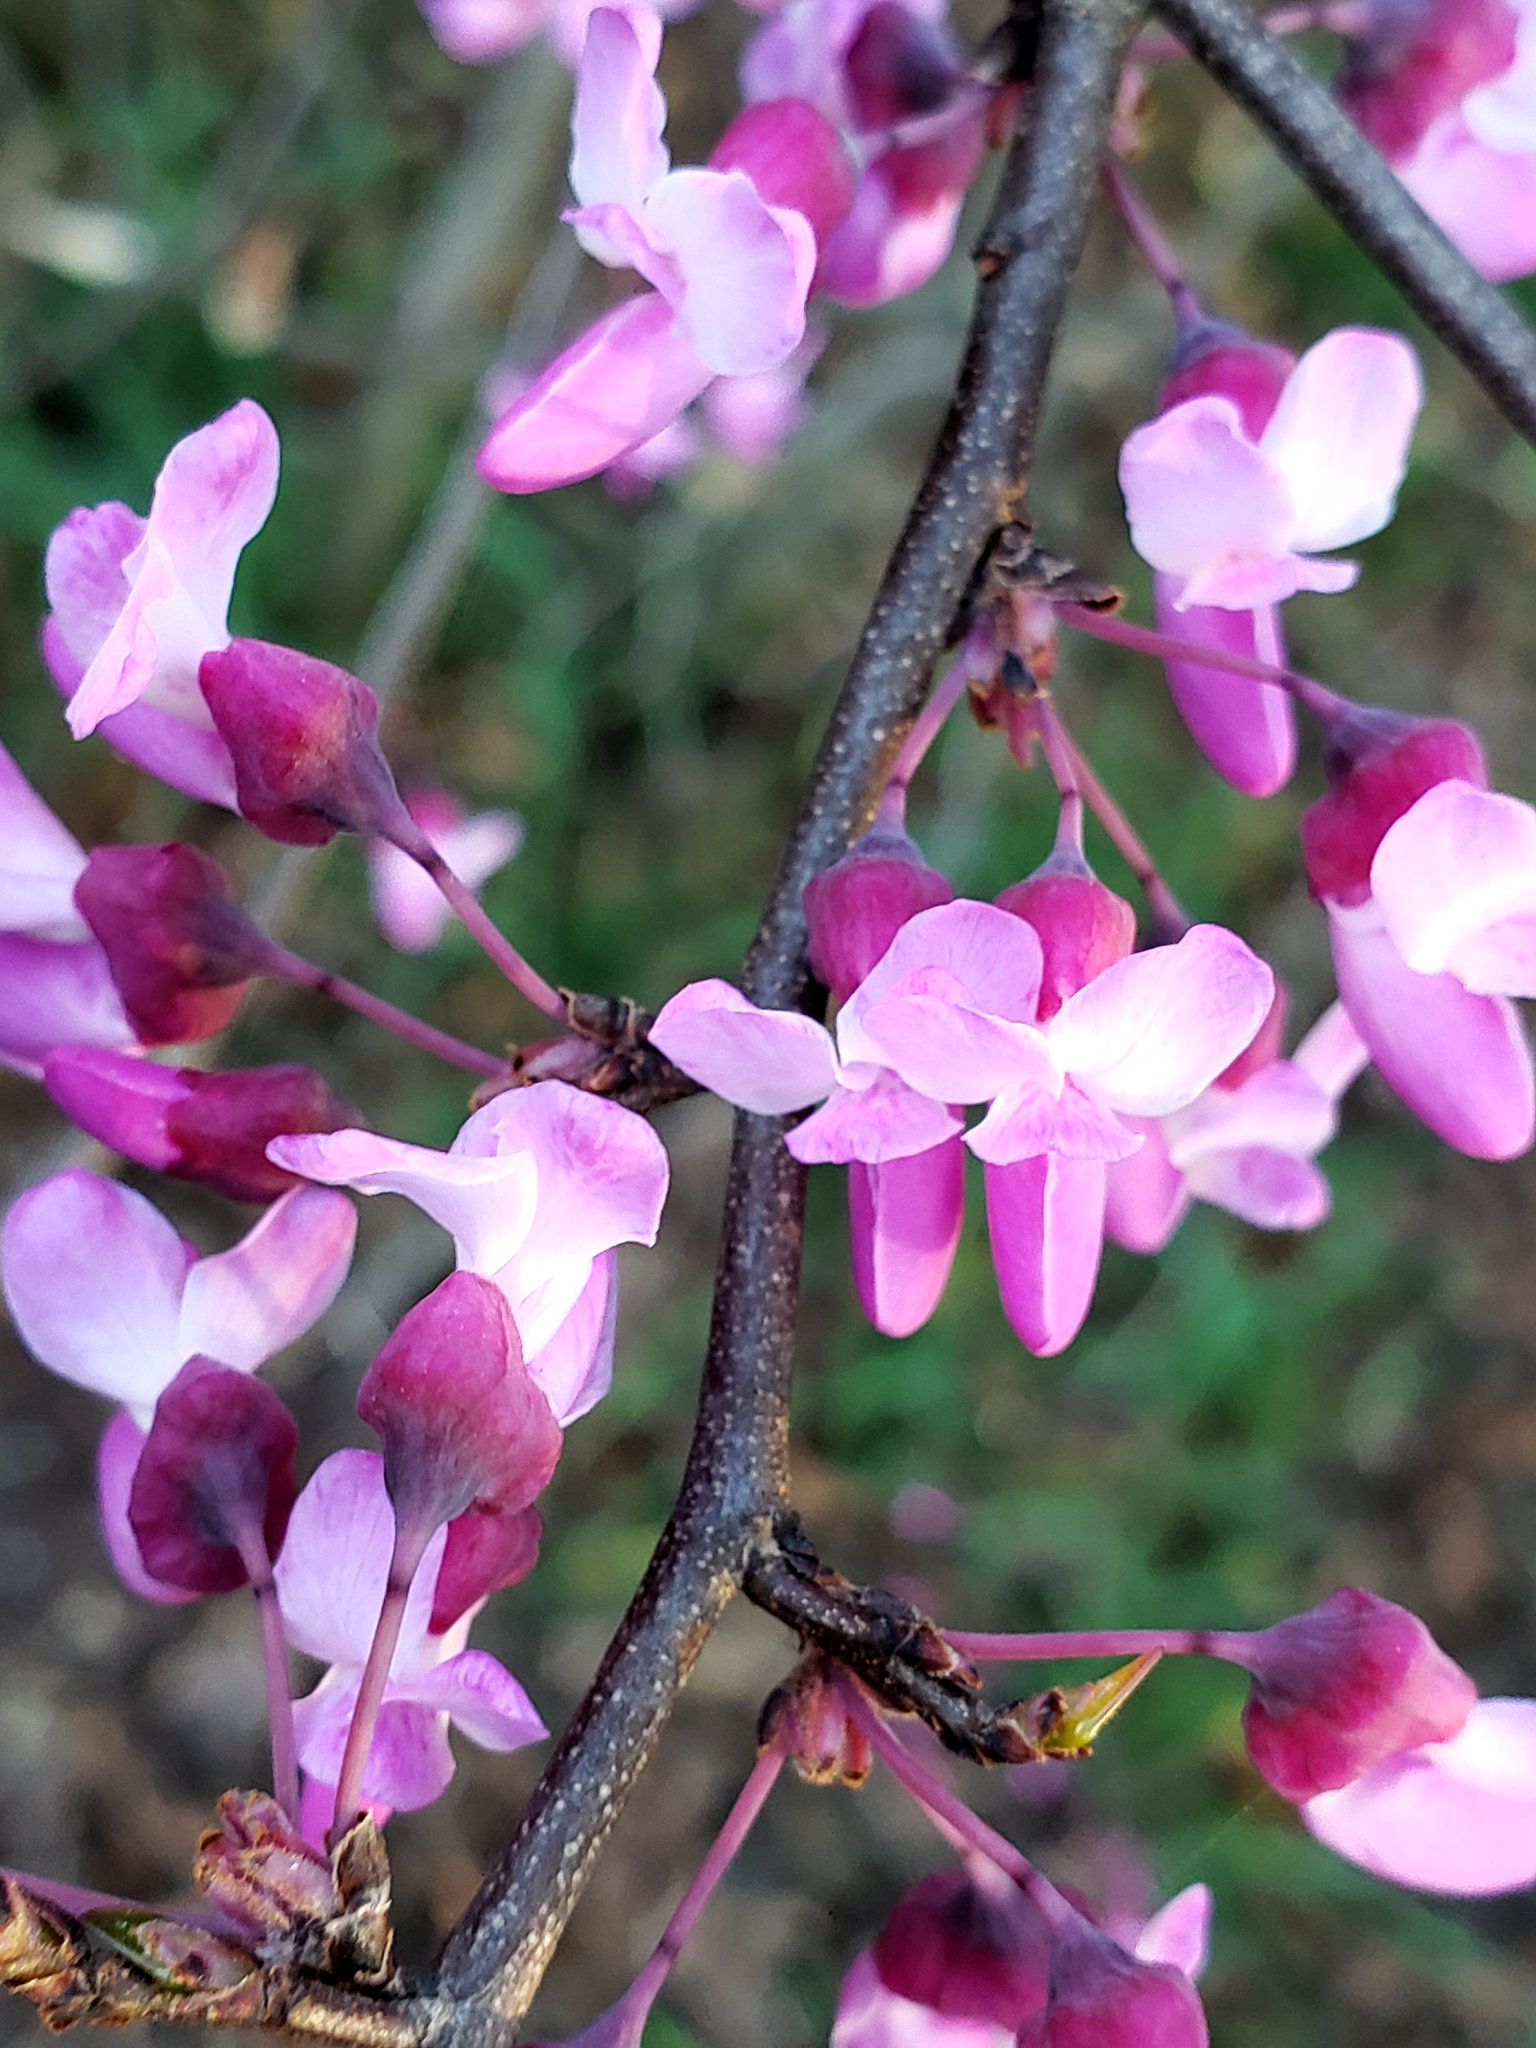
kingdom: Plantae
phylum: Tracheophyta
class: Magnoliopsida
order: Fabales
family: Fabaceae
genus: Cercis
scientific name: Cercis occidentalis
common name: California redbud
